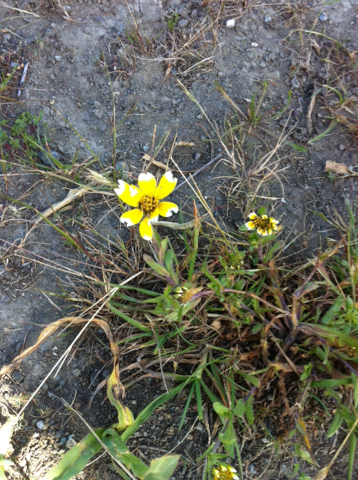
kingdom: Plantae
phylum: Tracheophyta
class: Magnoliopsida
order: Asterales
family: Asteraceae
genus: Layia
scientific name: Layia chrysanthemoides
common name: Smooth layia
